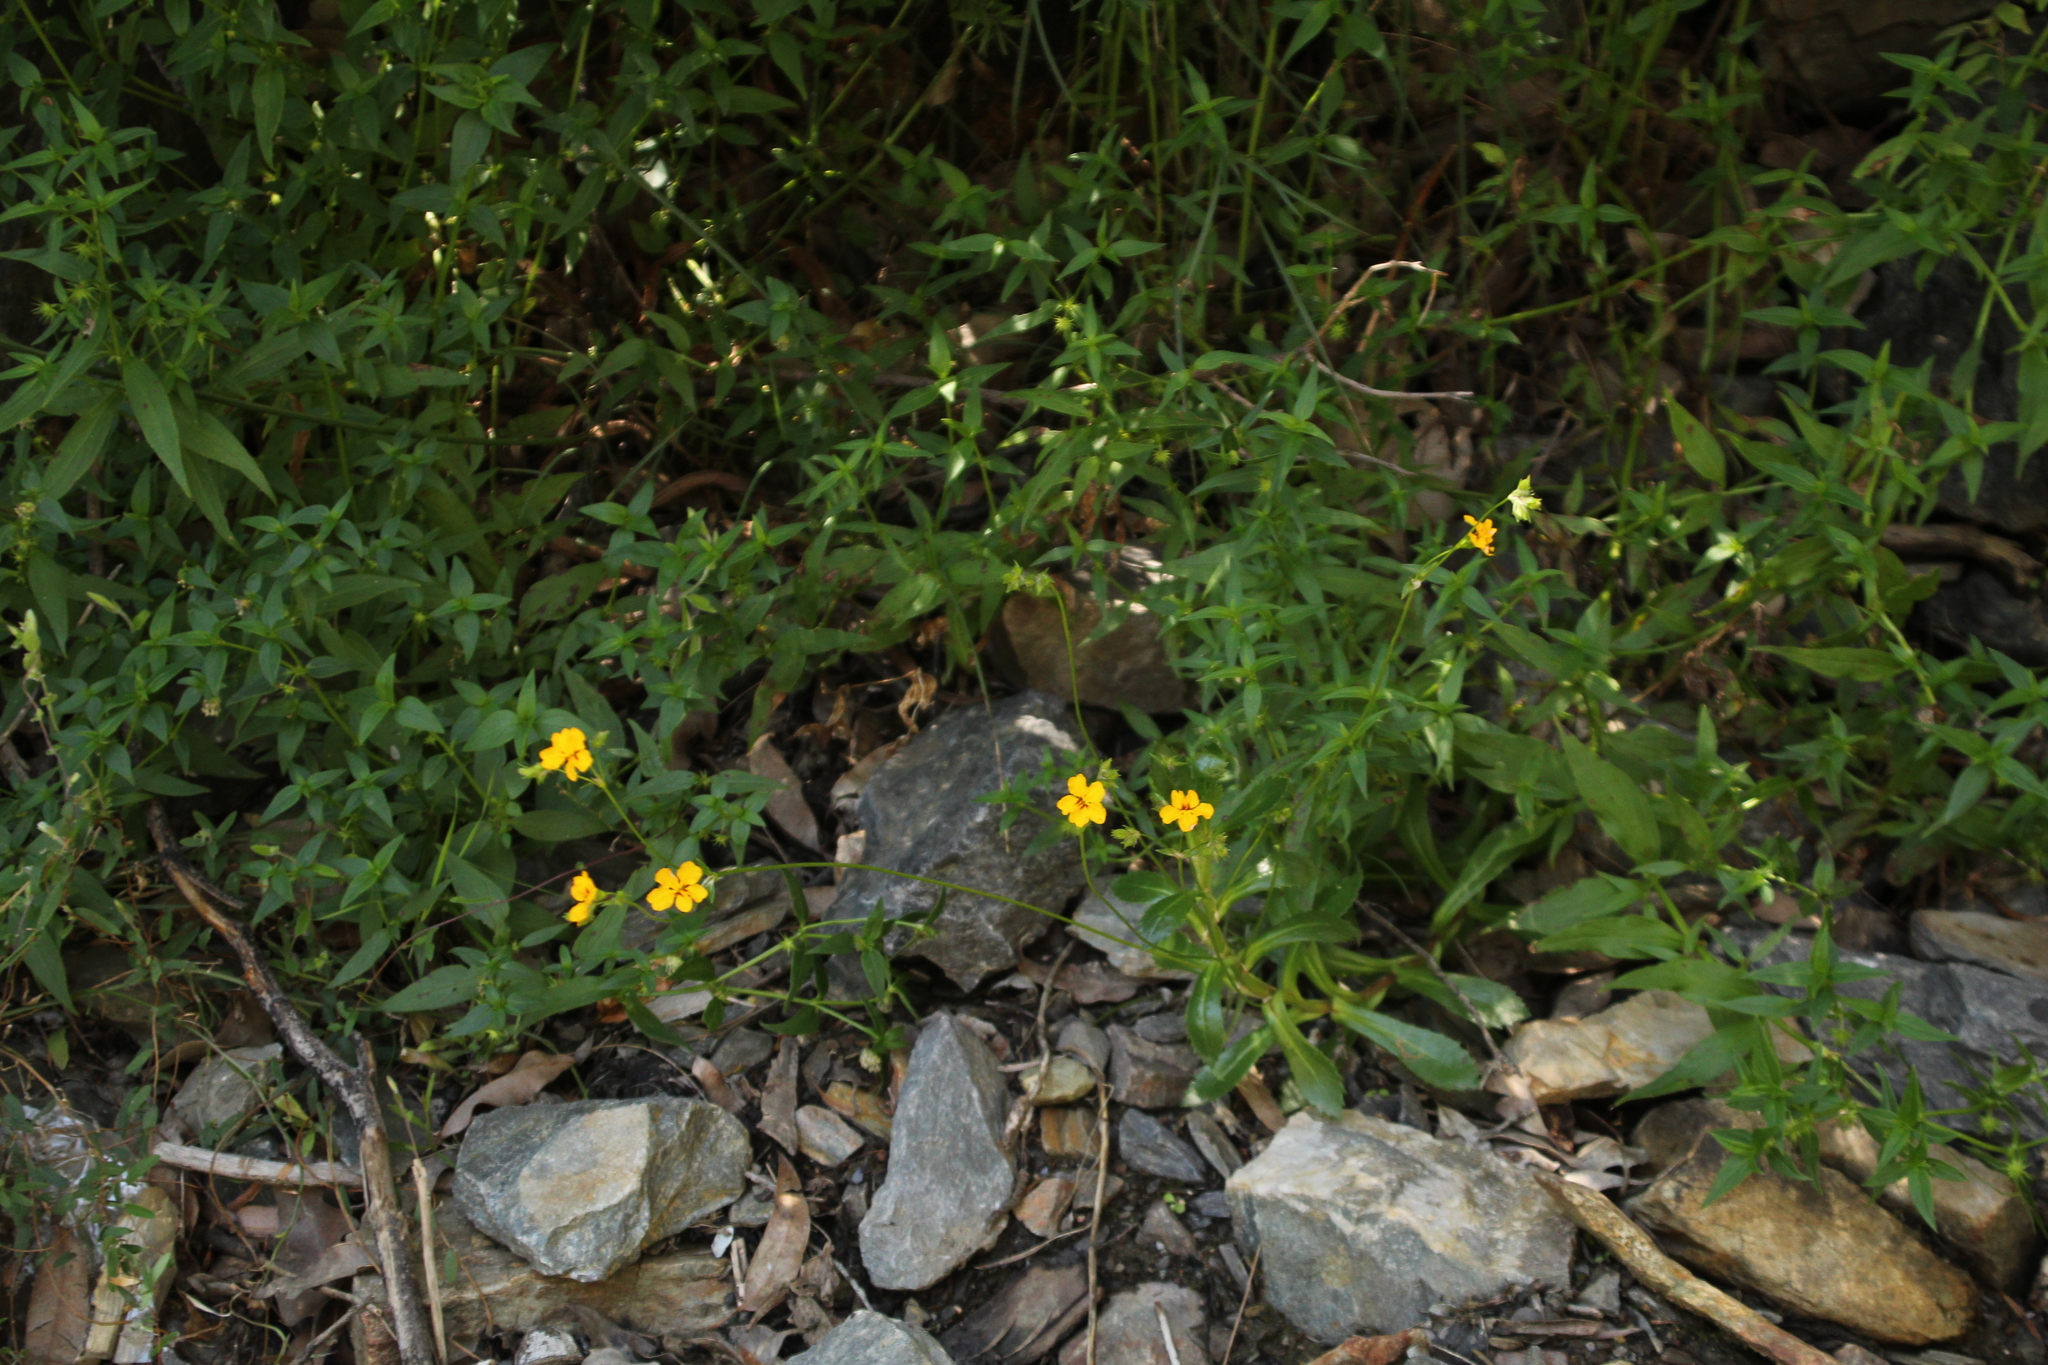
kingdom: Plantae
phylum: Tracheophyta
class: Magnoliopsida
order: Asterales
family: Goodeniaceae
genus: Goodenia
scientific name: Goodenia brendannarum
